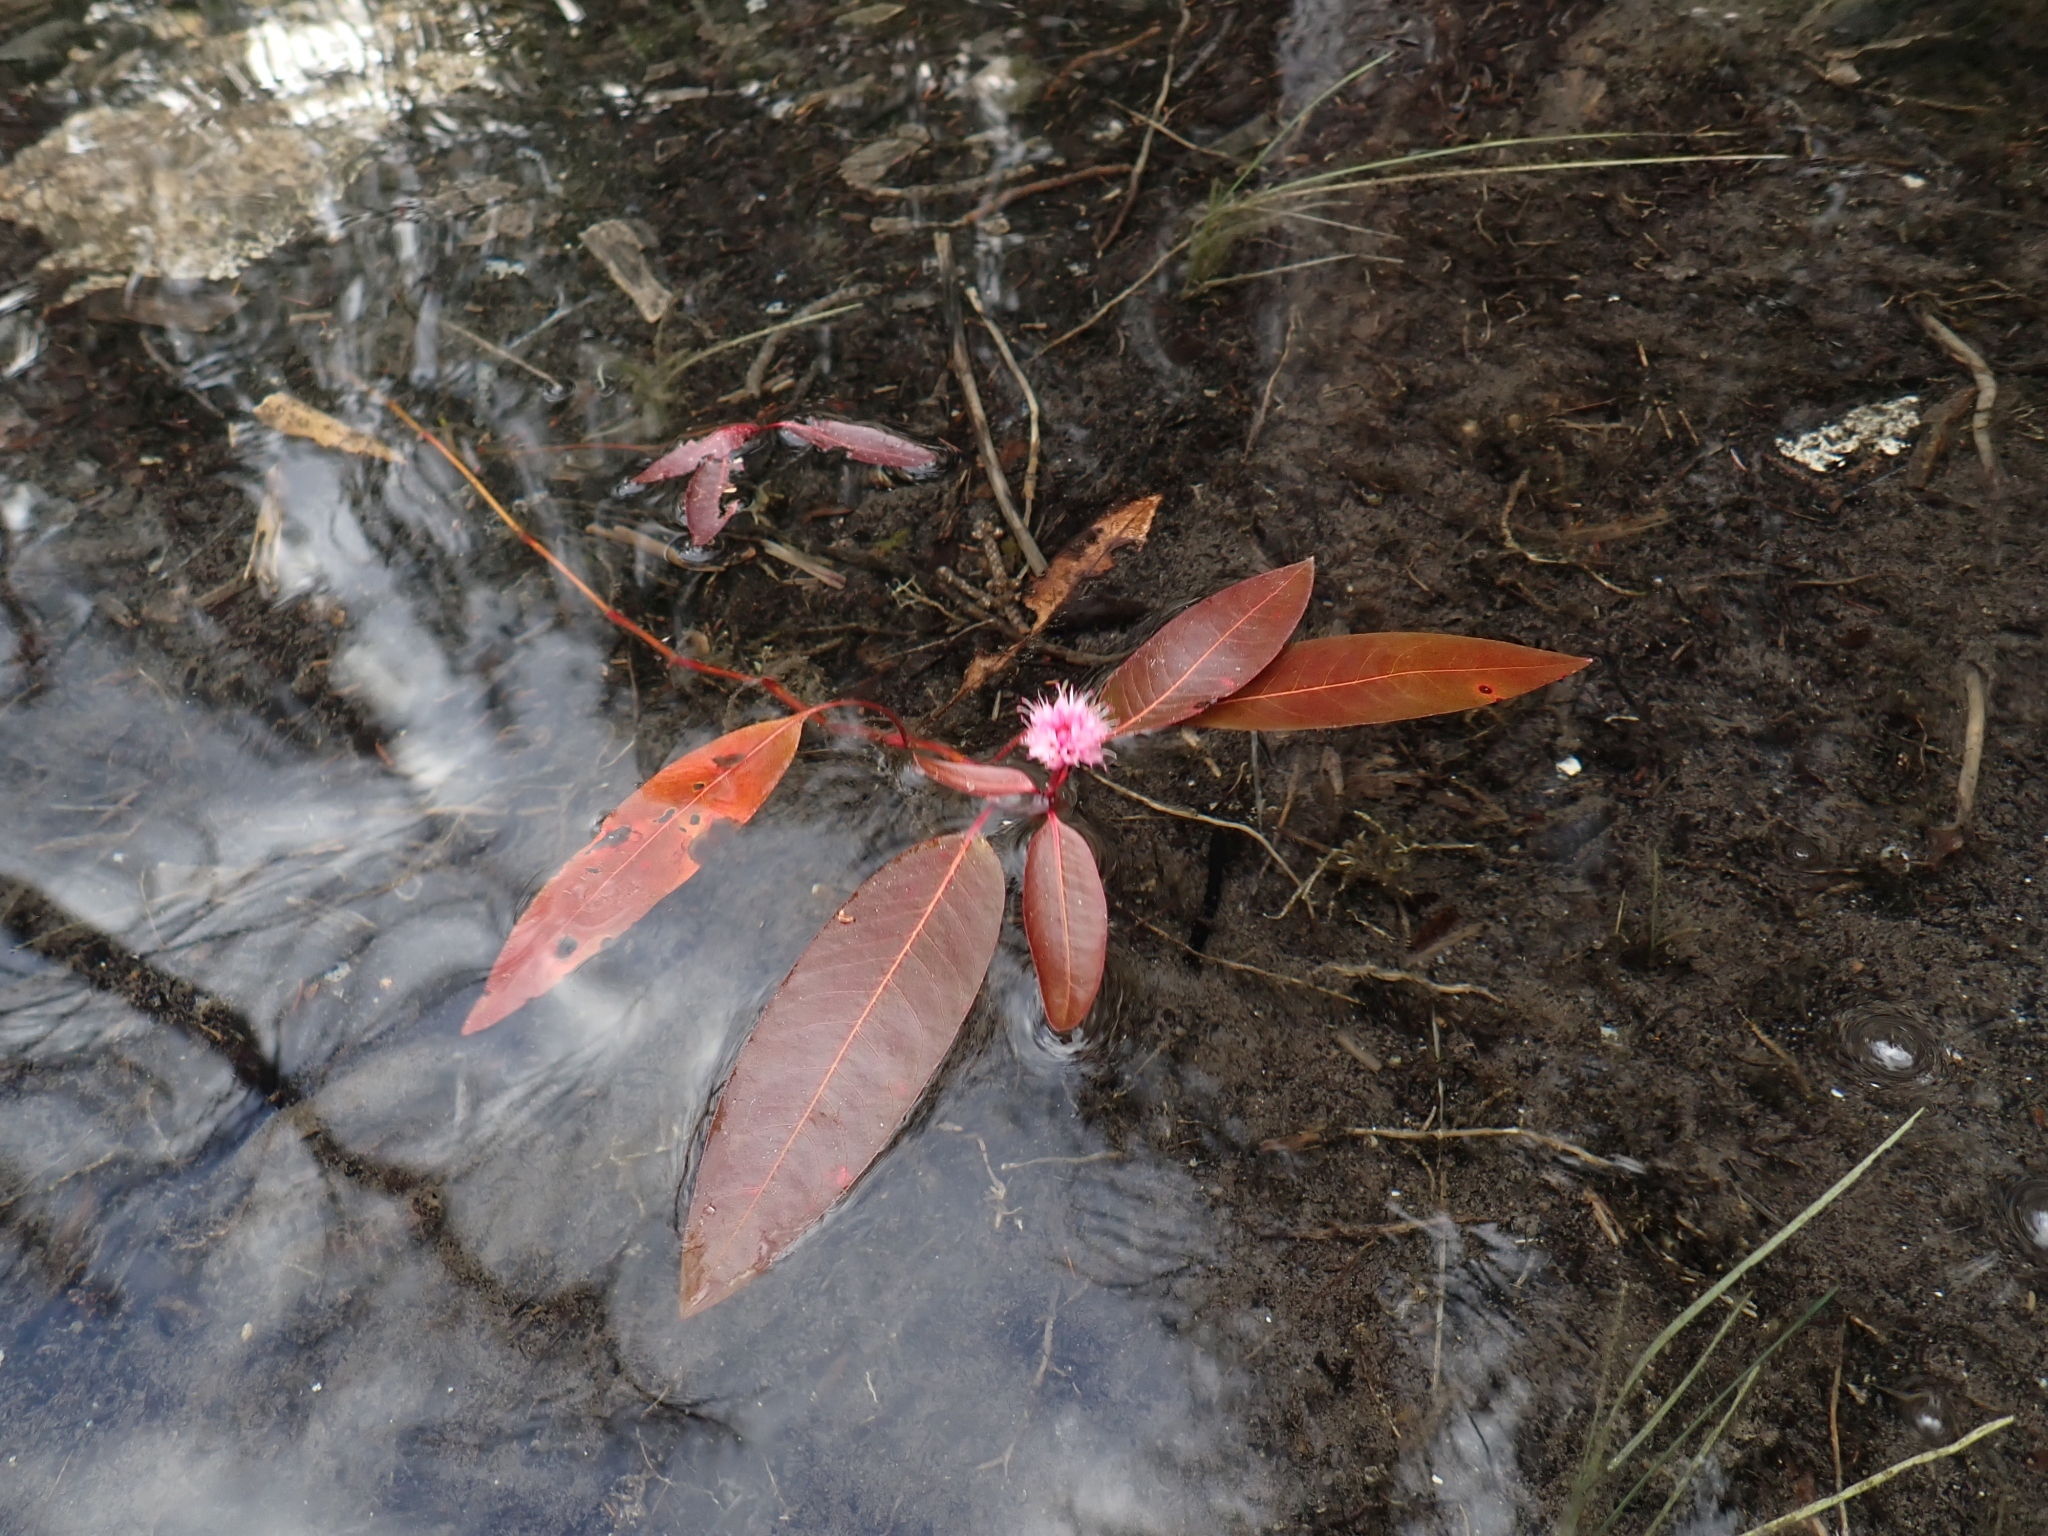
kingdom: Plantae
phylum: Tracheophyta
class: Magnoliopsida
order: Caryophyllales
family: Polygonaceae
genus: Persicaria
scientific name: Persicaria amphibia
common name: Amphibious bistort
